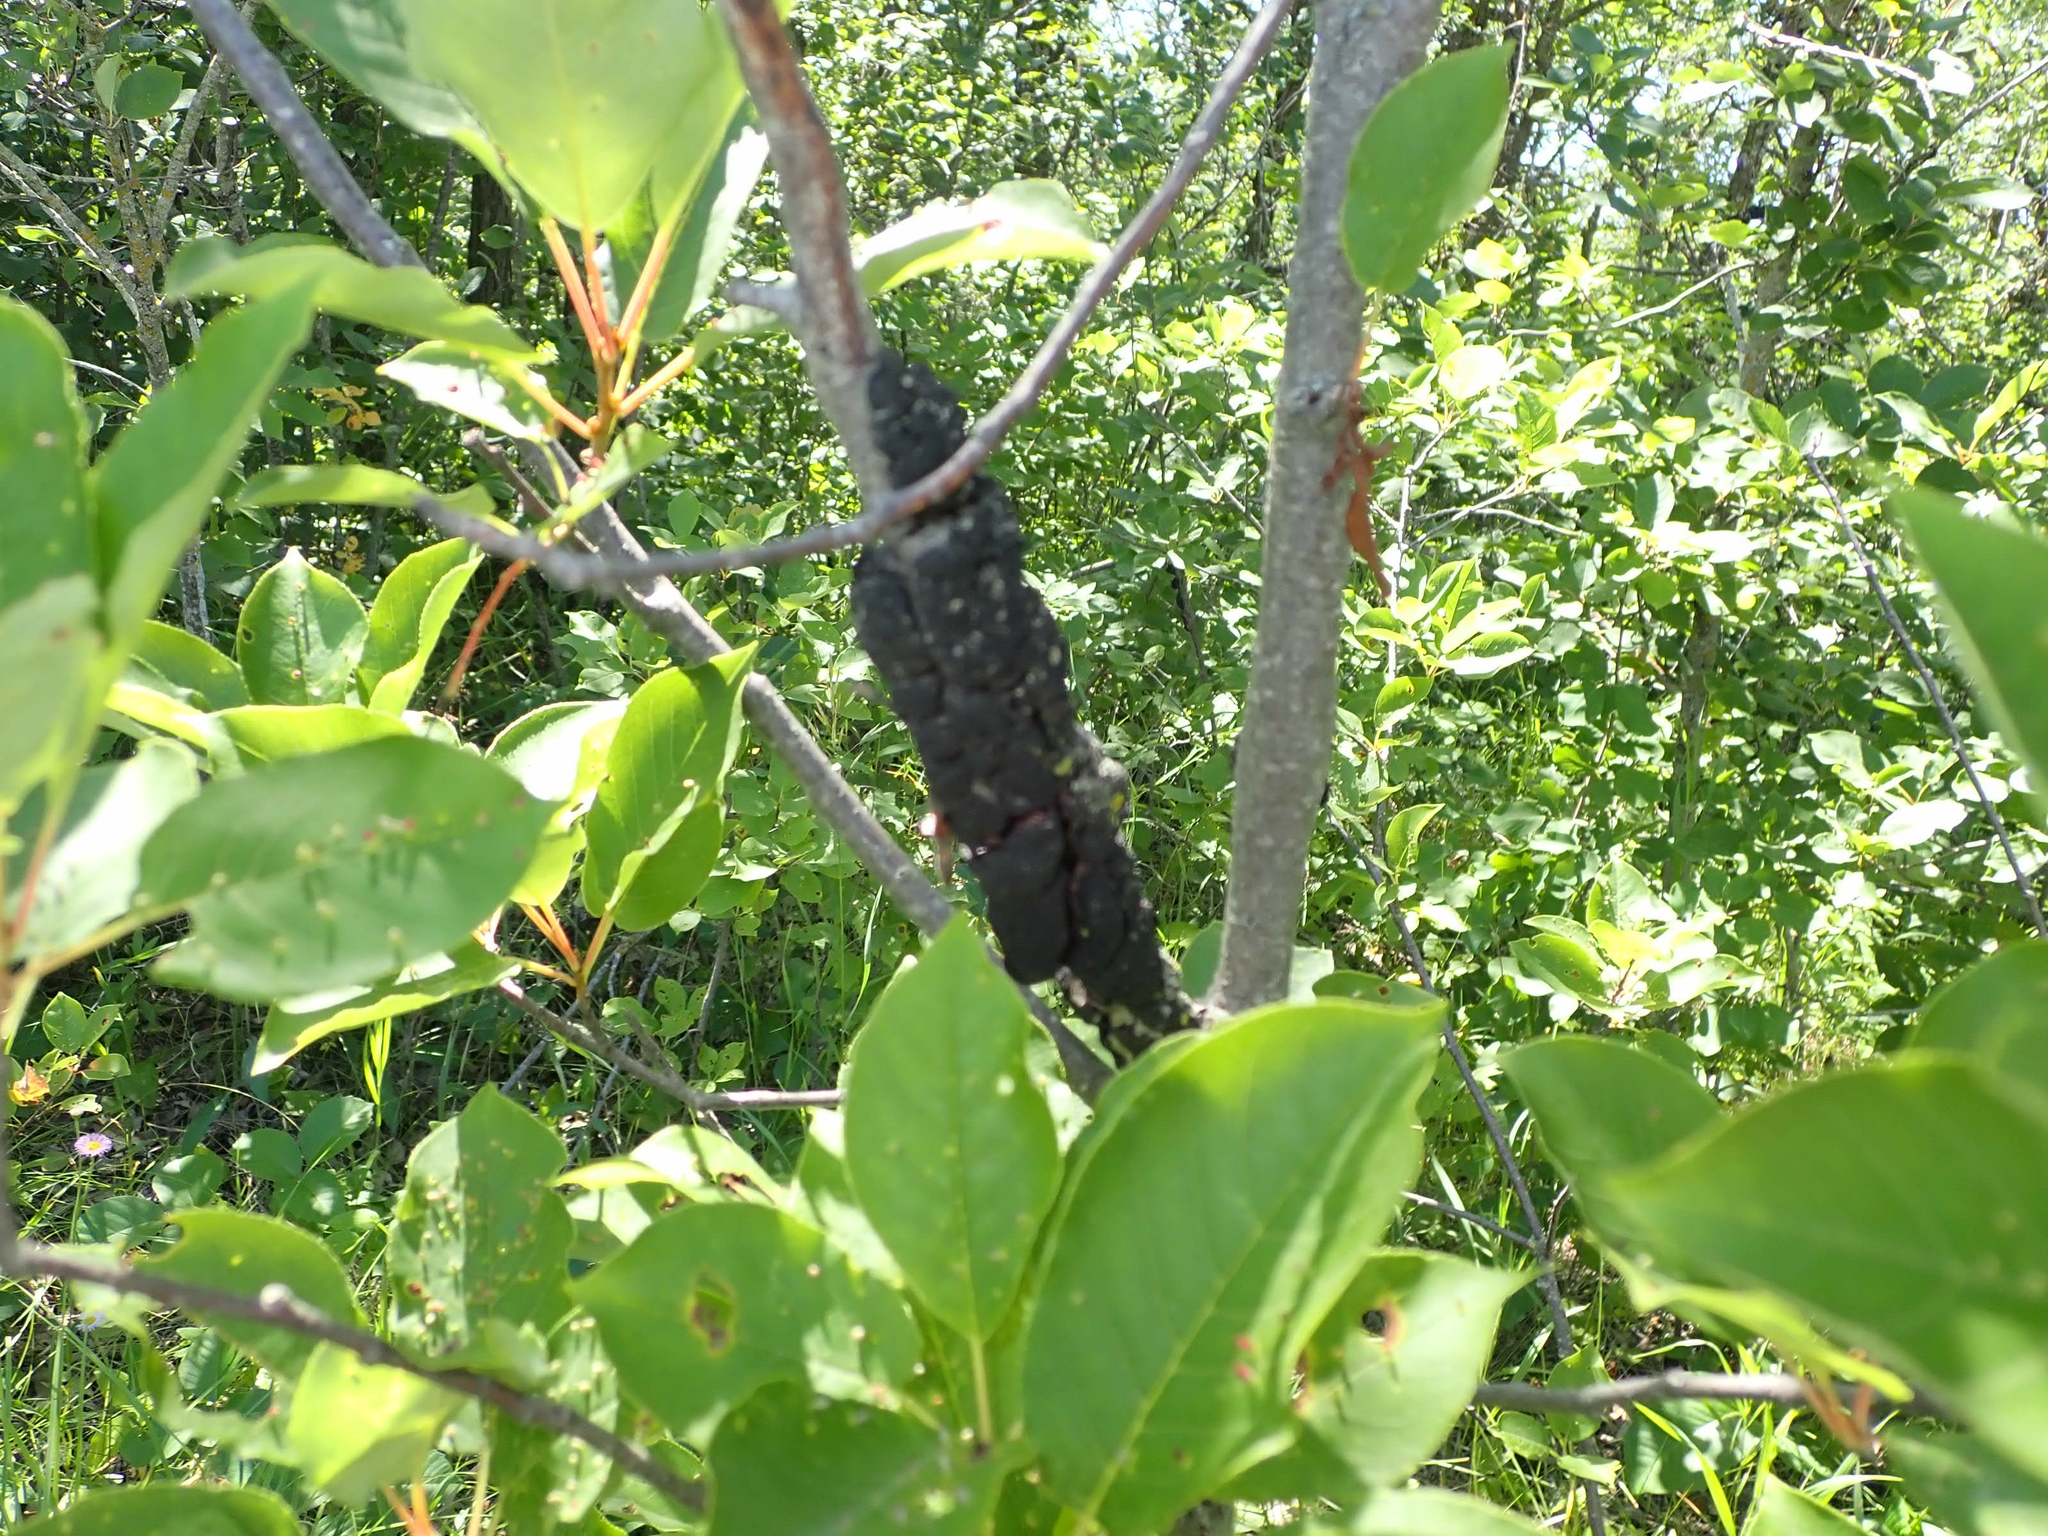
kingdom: Fungi
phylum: Ascomycota
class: Dothideomycetes
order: Venturiales
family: Venturiaceae
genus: Apiosporina
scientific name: Apiosporina morbosa
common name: Black knot
